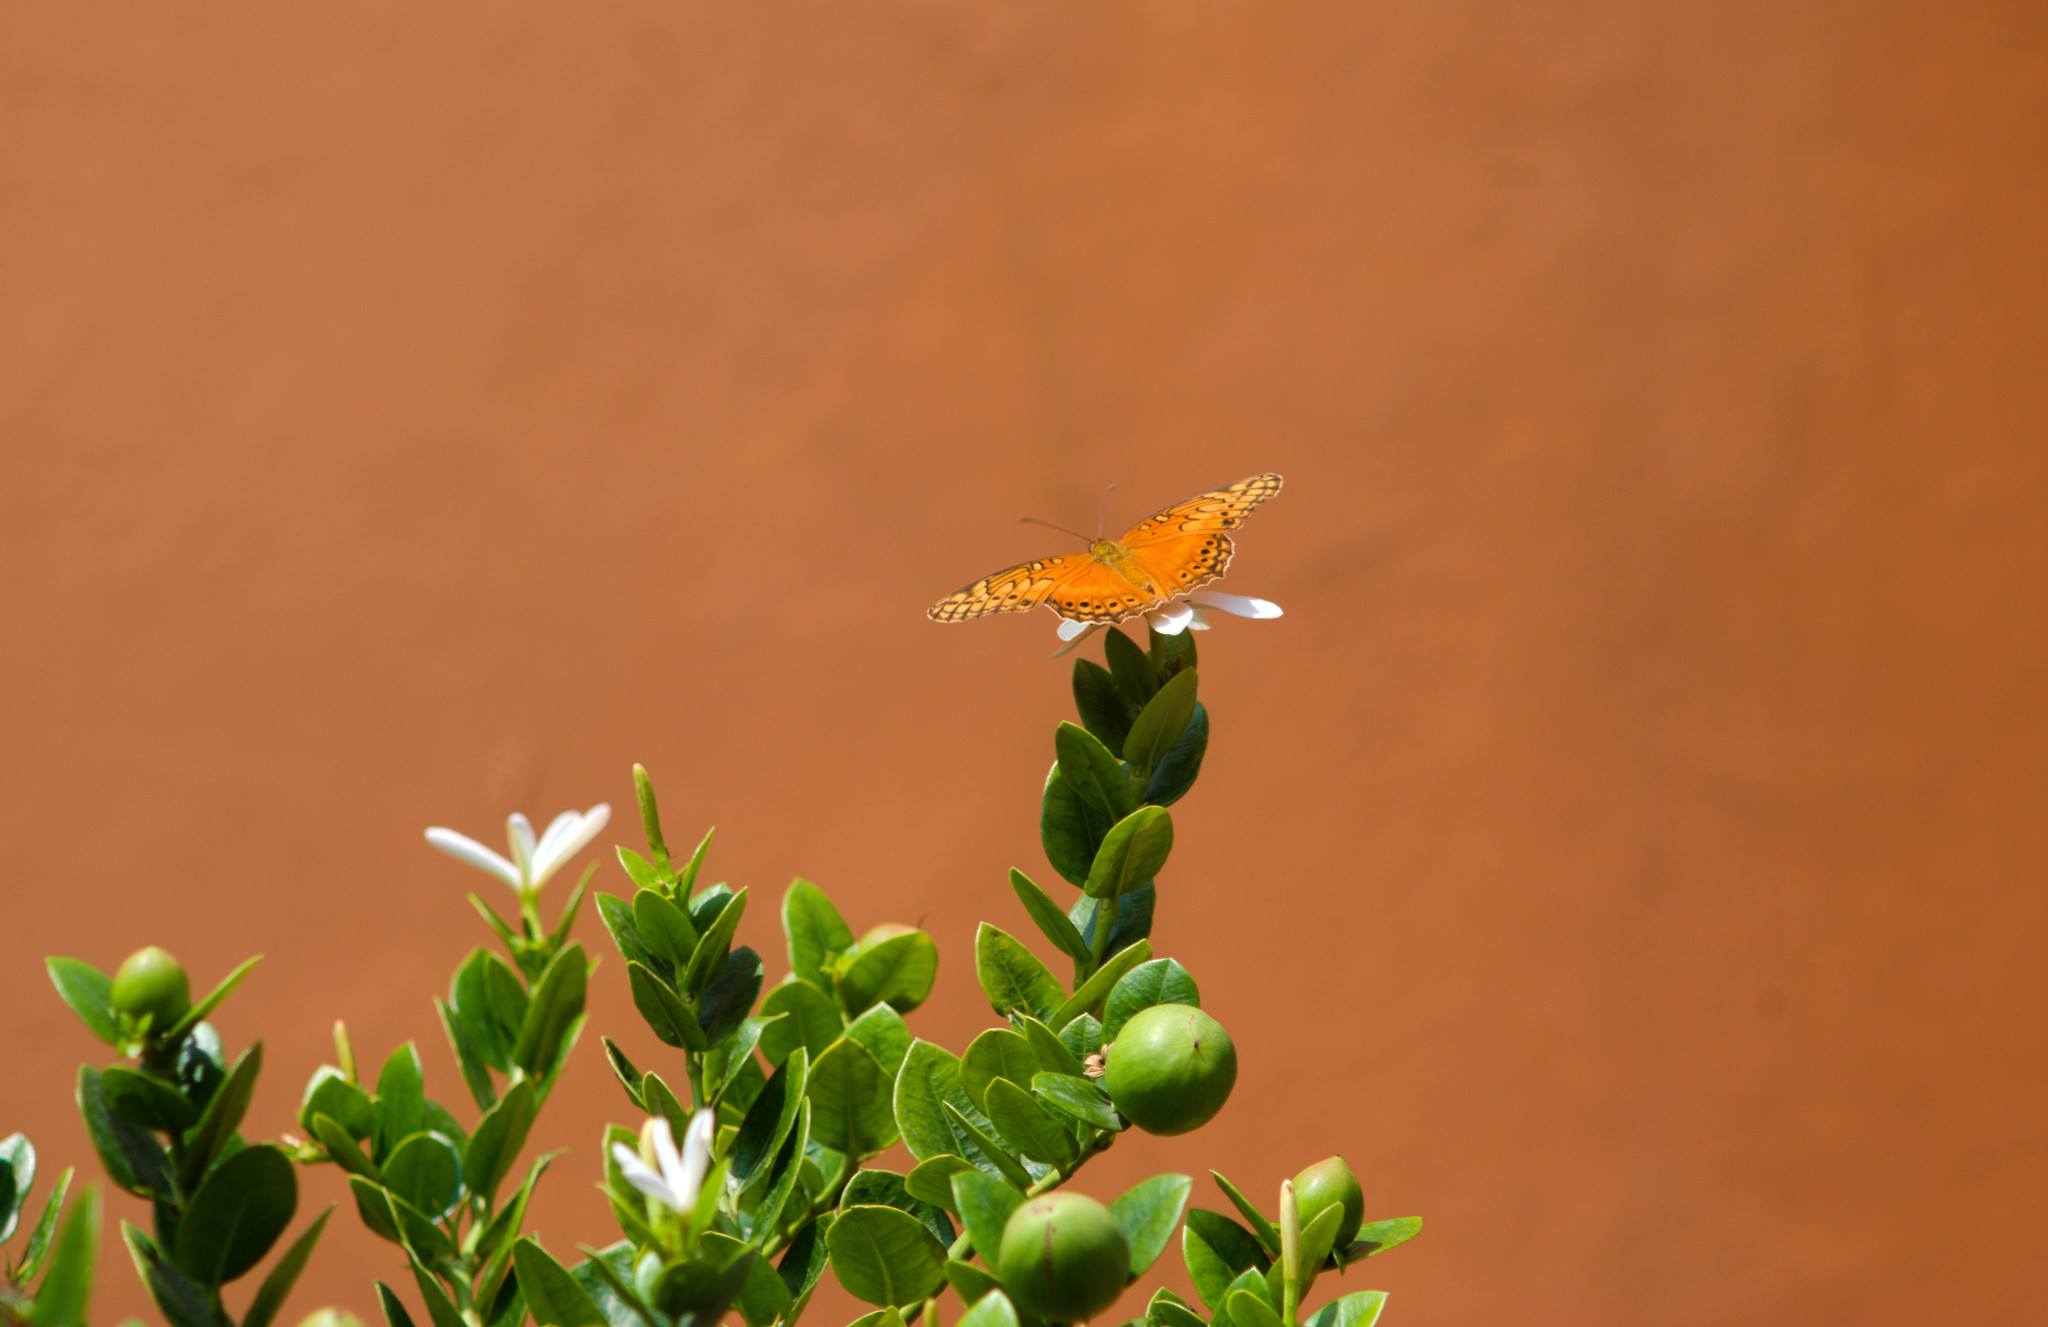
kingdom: Animalia
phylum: Arthropoda
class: Insecta
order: Lepidoptera
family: Nymphalidae
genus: Euptoieta
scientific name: Euptoieta hegesia
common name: Mexican fritillary
